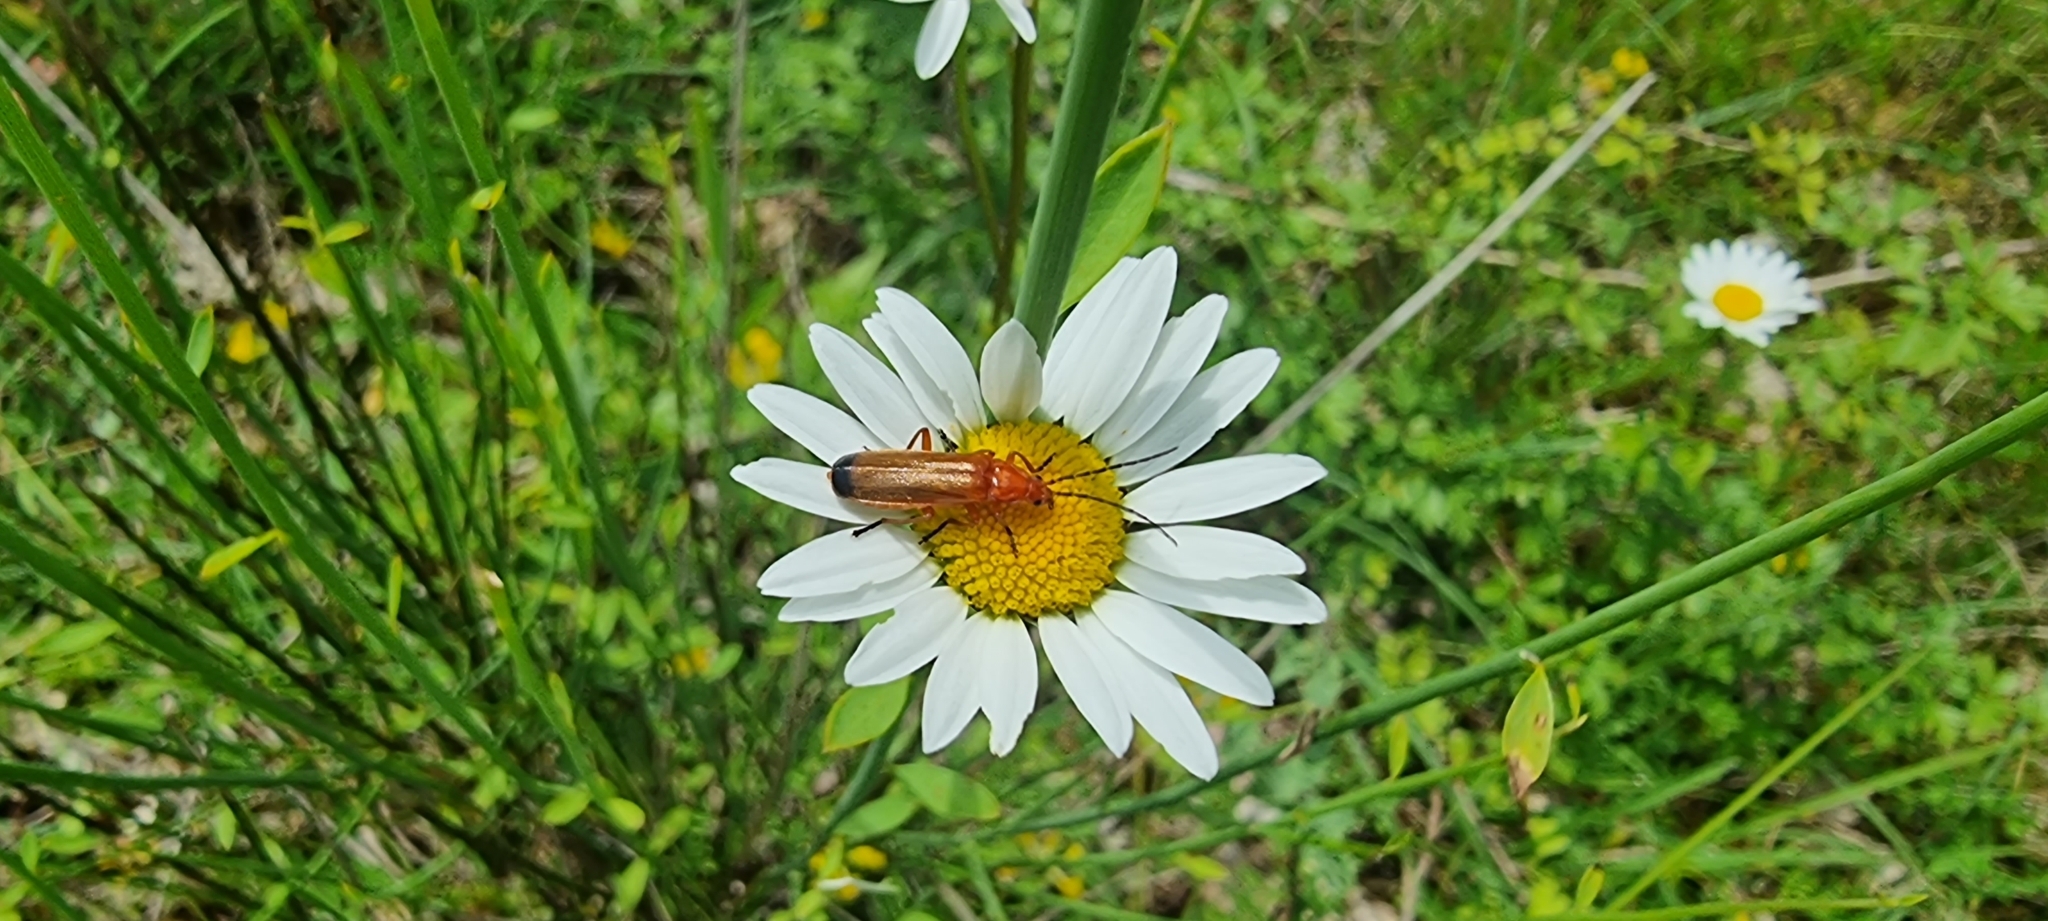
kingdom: Animalia
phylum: Arthropoda
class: Insecta
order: Coleoptera
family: Cantharidae
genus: Rhagonycha
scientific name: Rhagonycha fulva
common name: Common red soldier beetle
